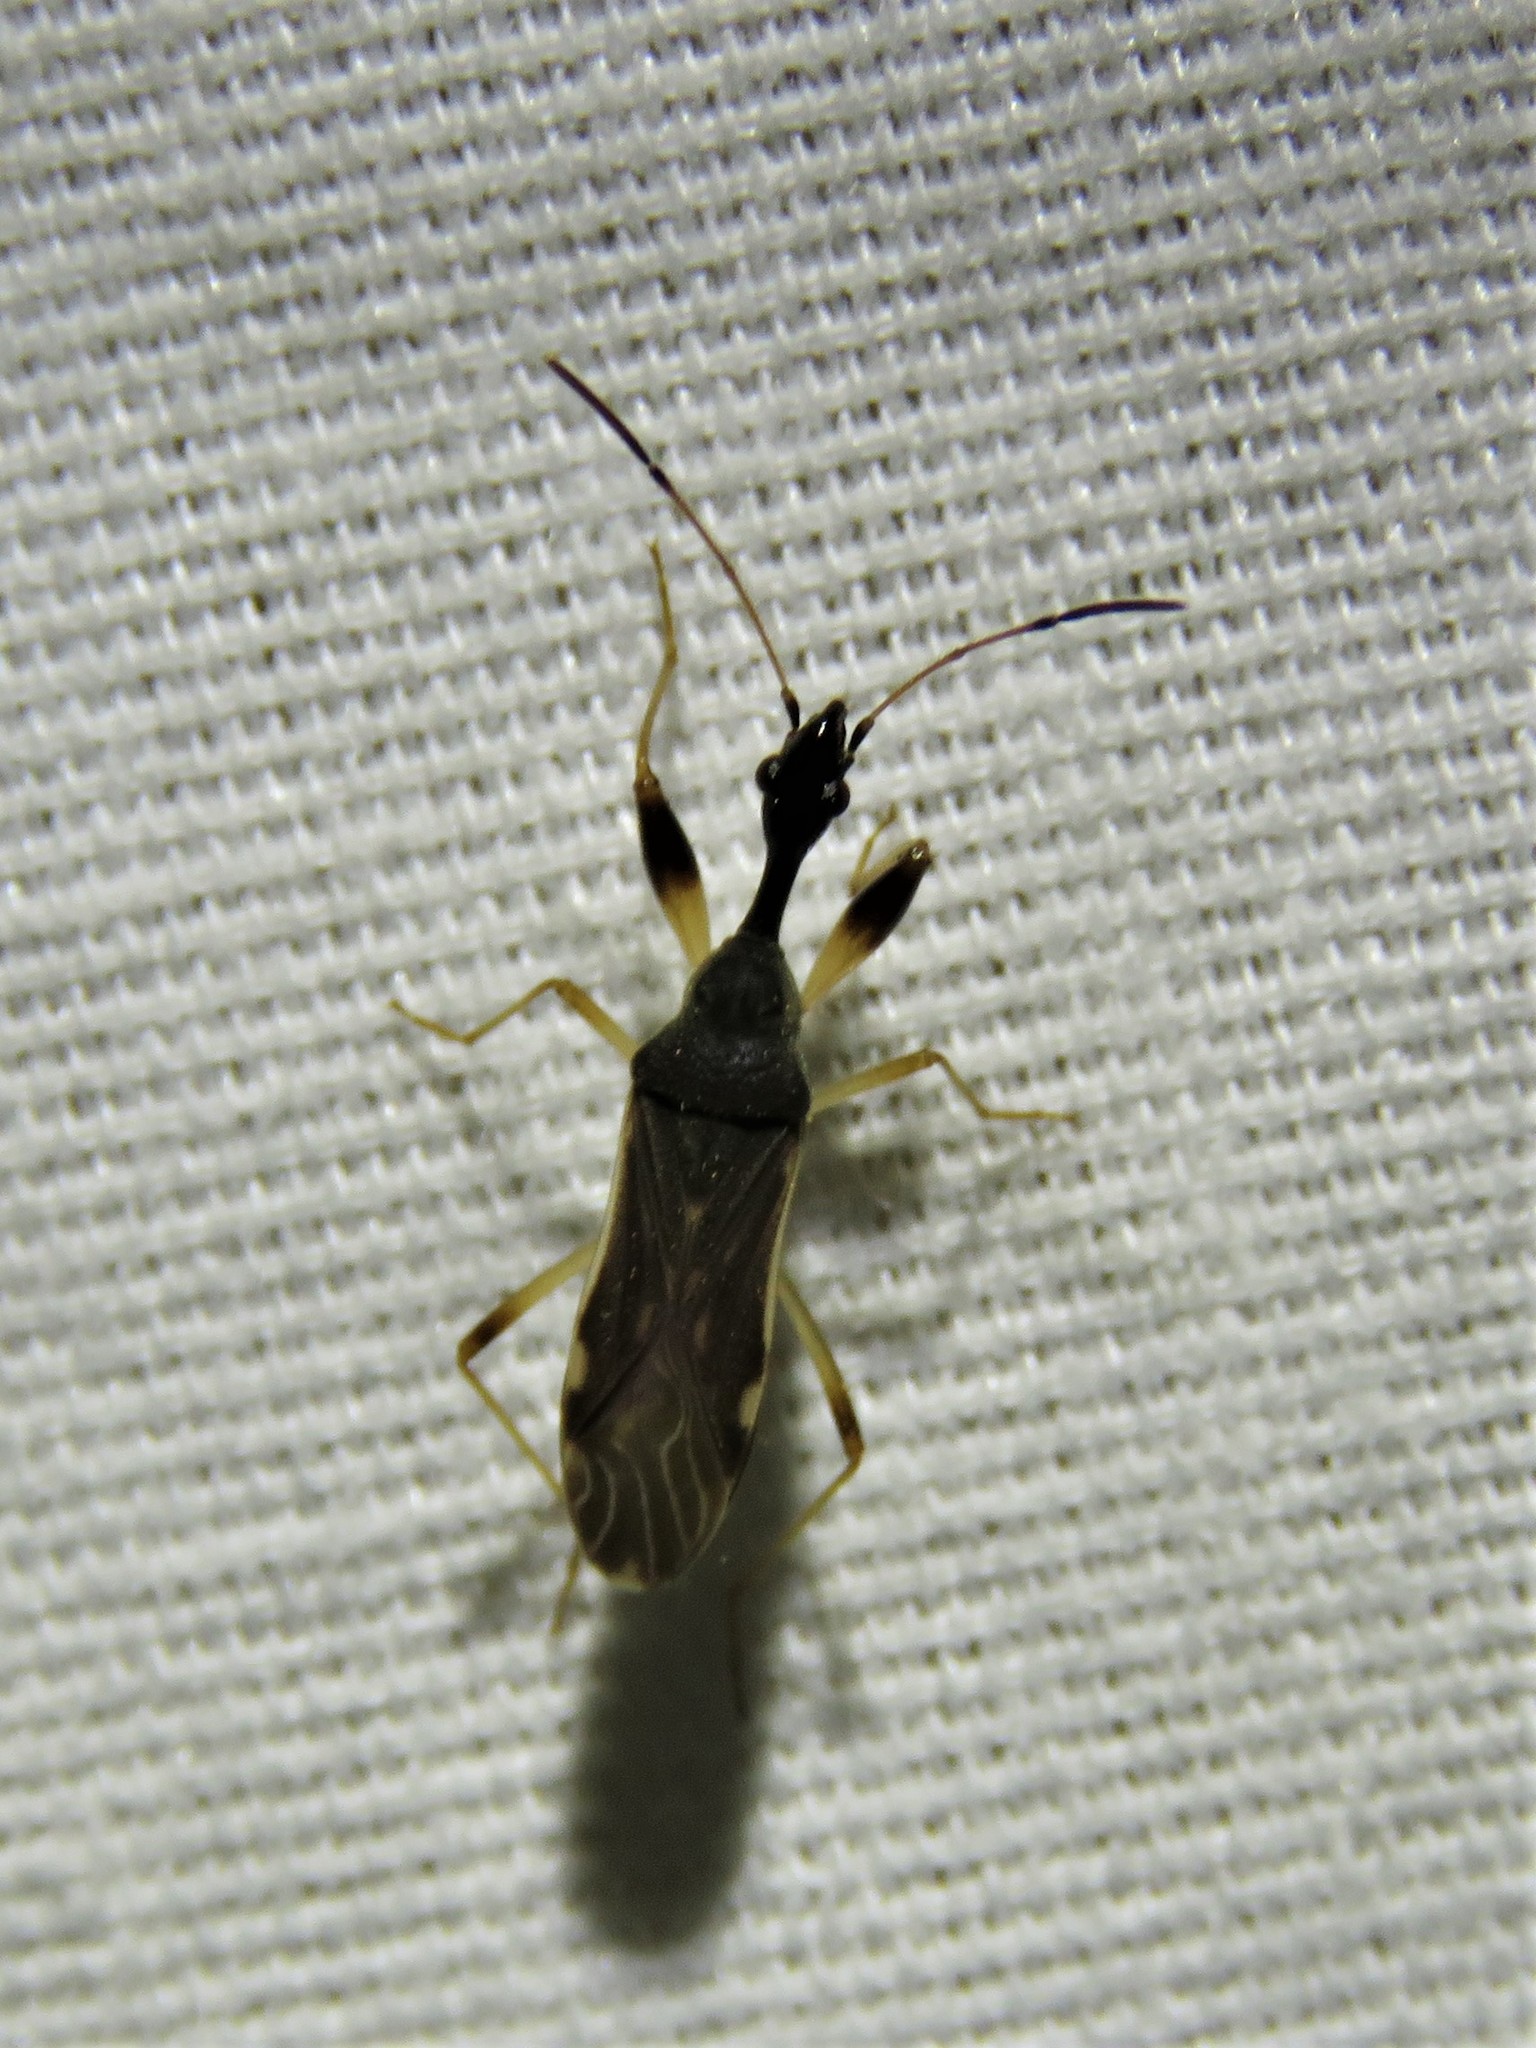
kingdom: Animalia
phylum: Arthropoda
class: Insecta
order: Hemiptera
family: Rhyparochromidae
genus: Myodocha
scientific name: Myodocha serripes
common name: Long-necked seed bug
